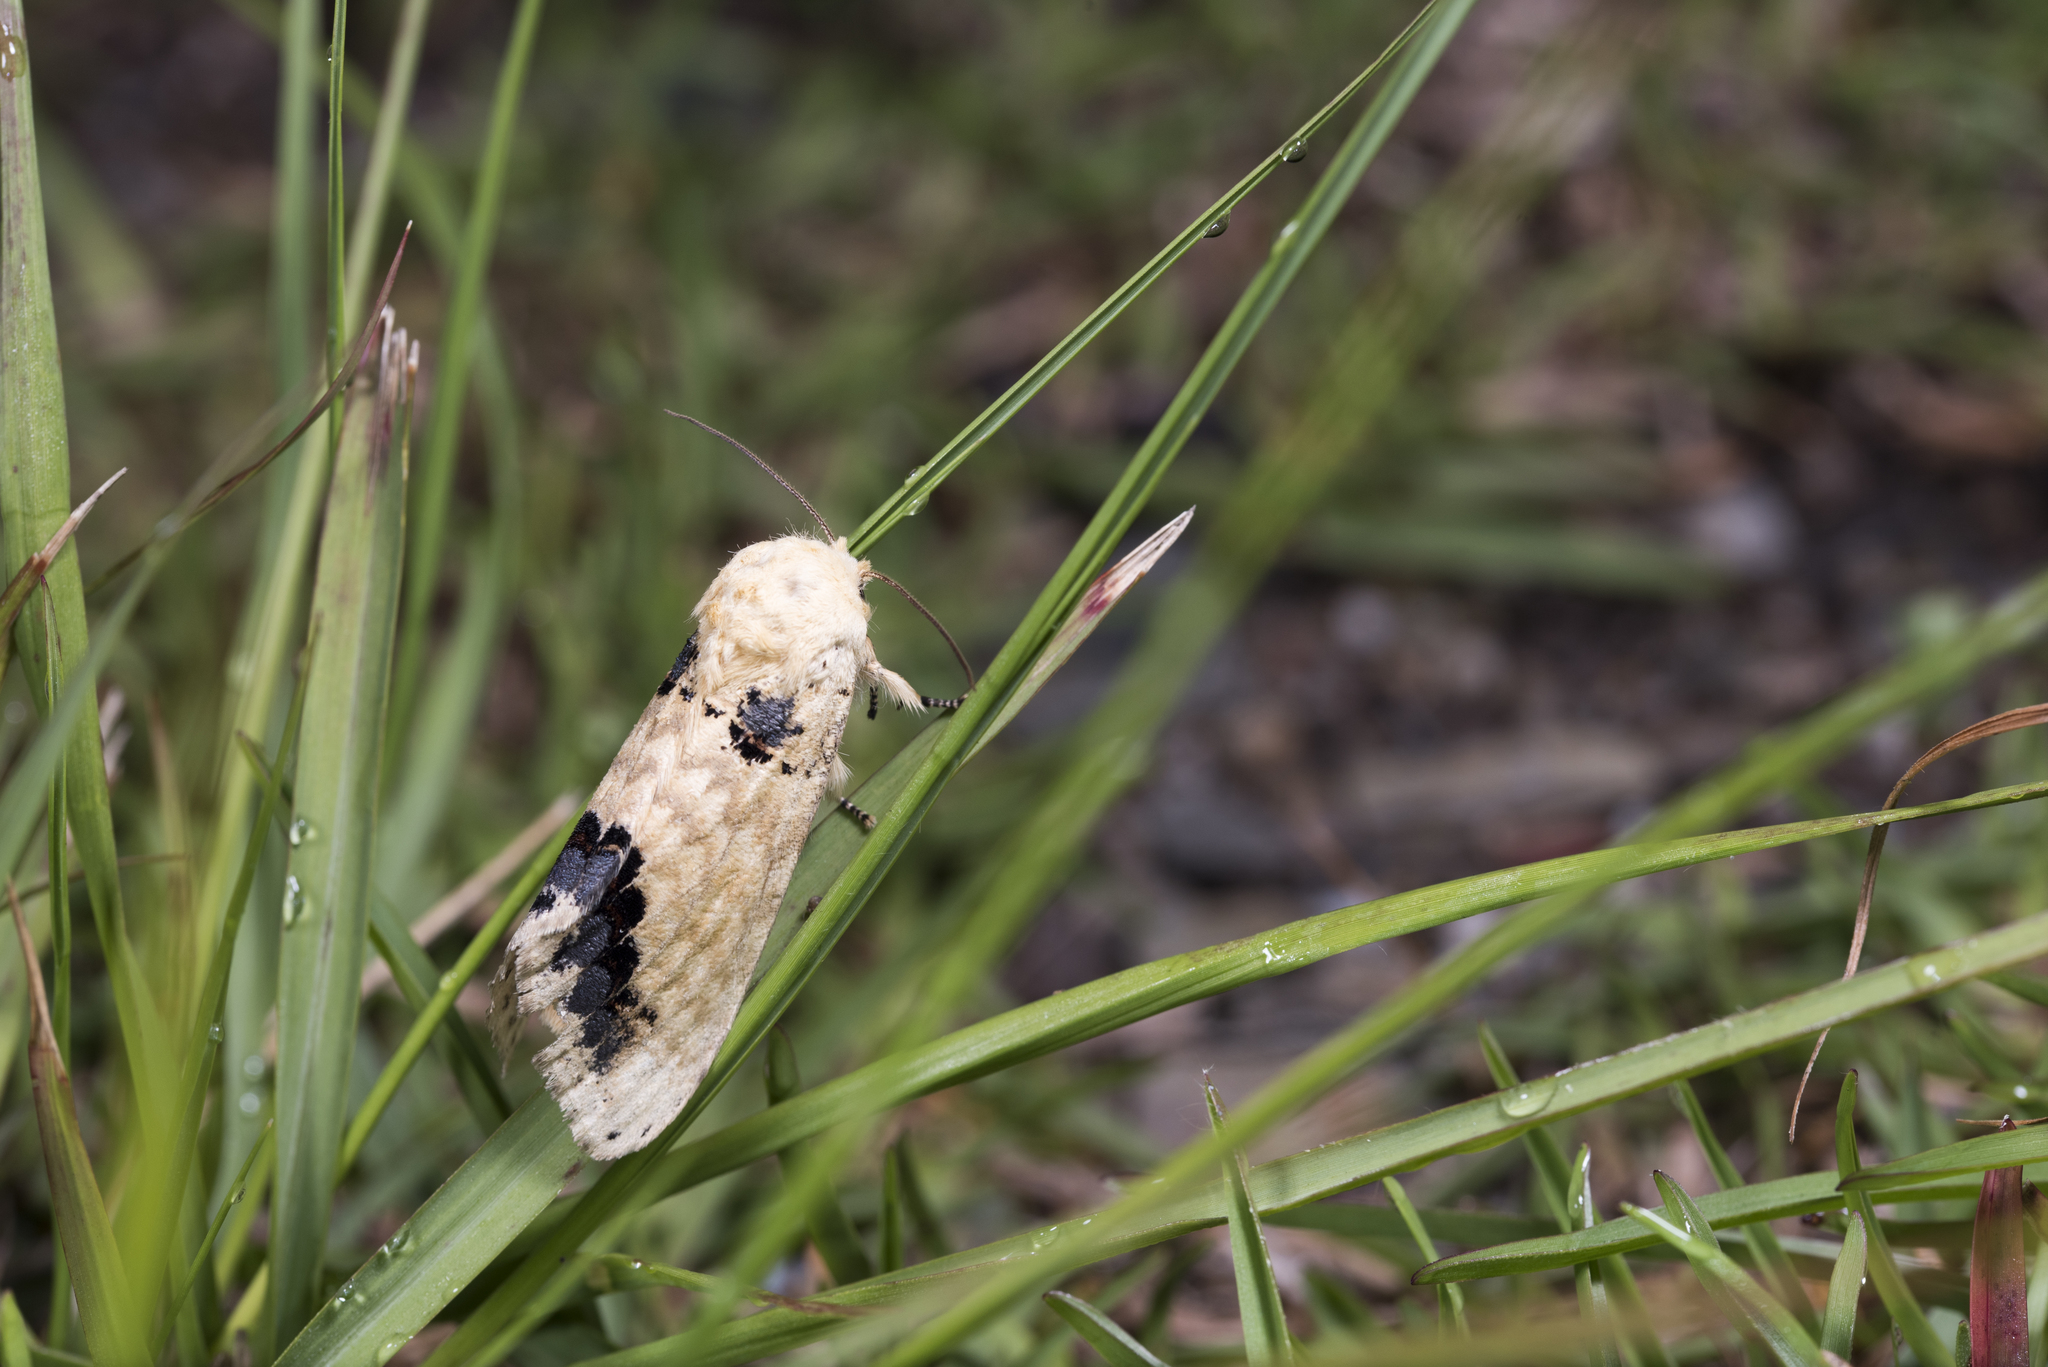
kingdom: Animalia
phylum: Arthropoda
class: Insecta
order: Lepidoptera
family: Notodontidae
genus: Phalera
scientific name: Phalera flavescens
